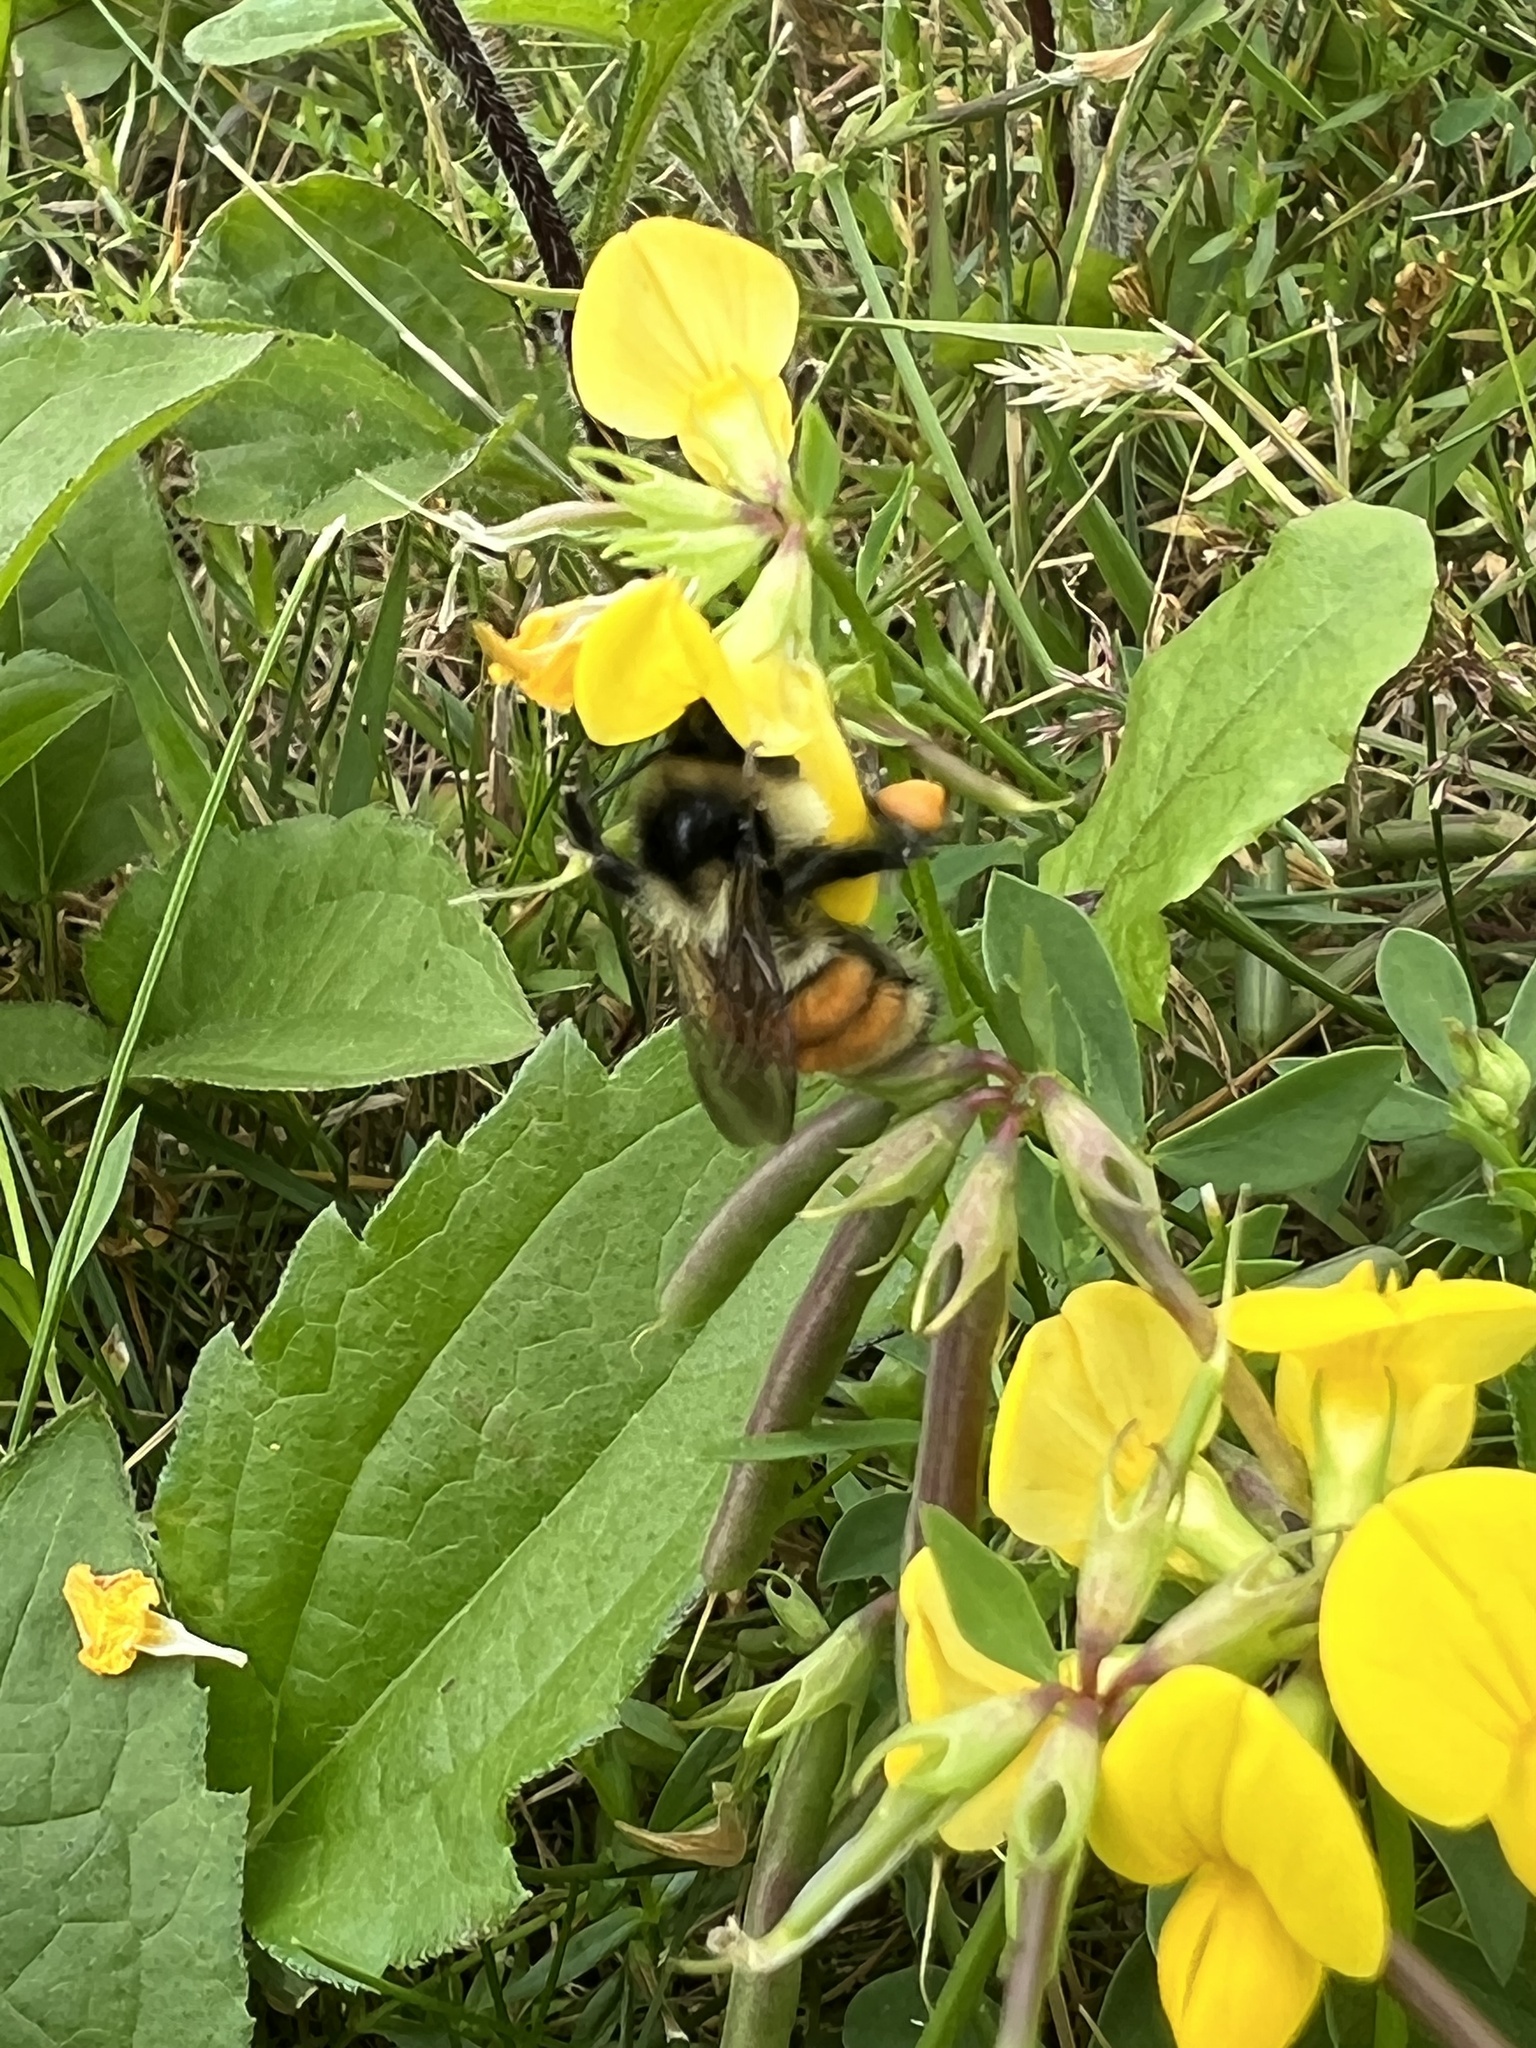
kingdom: Animalia
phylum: Arthropoda
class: Insecta
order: Hymenoptera
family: Apidae
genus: Bombus
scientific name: Bombus ternarius
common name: Tri-colored bumble bee
